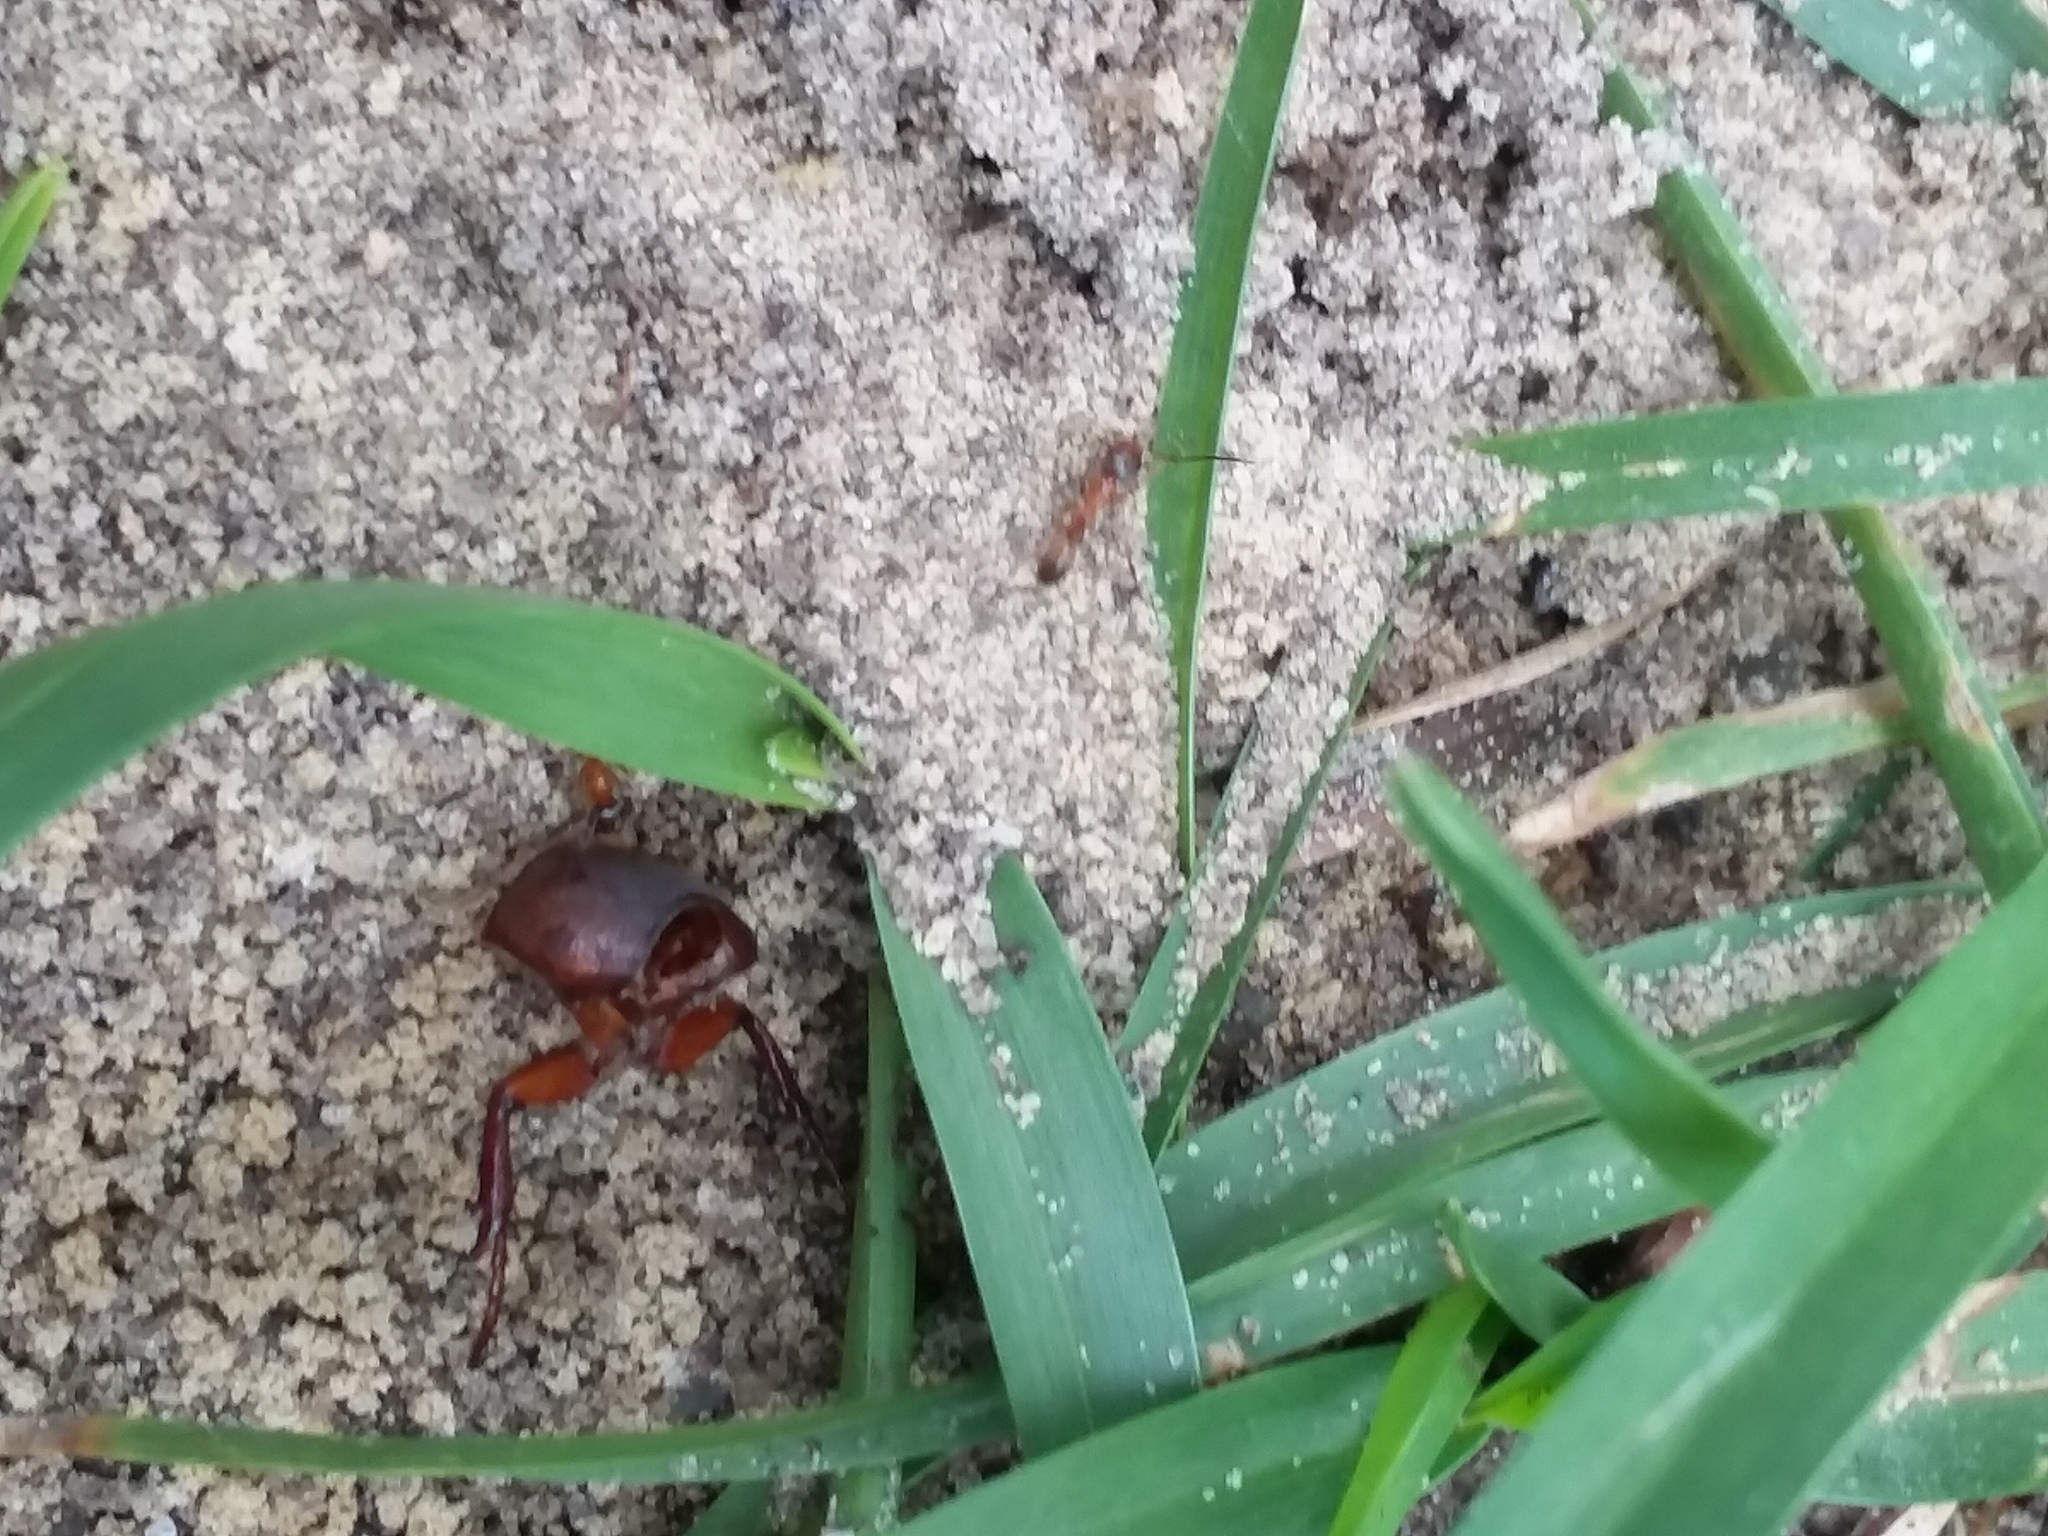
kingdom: Animalia
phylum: Arthropoda
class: Insecta
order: Hymenoptera
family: Formicidae
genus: Dorymyrmex
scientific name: Dorymyrmex bureni
